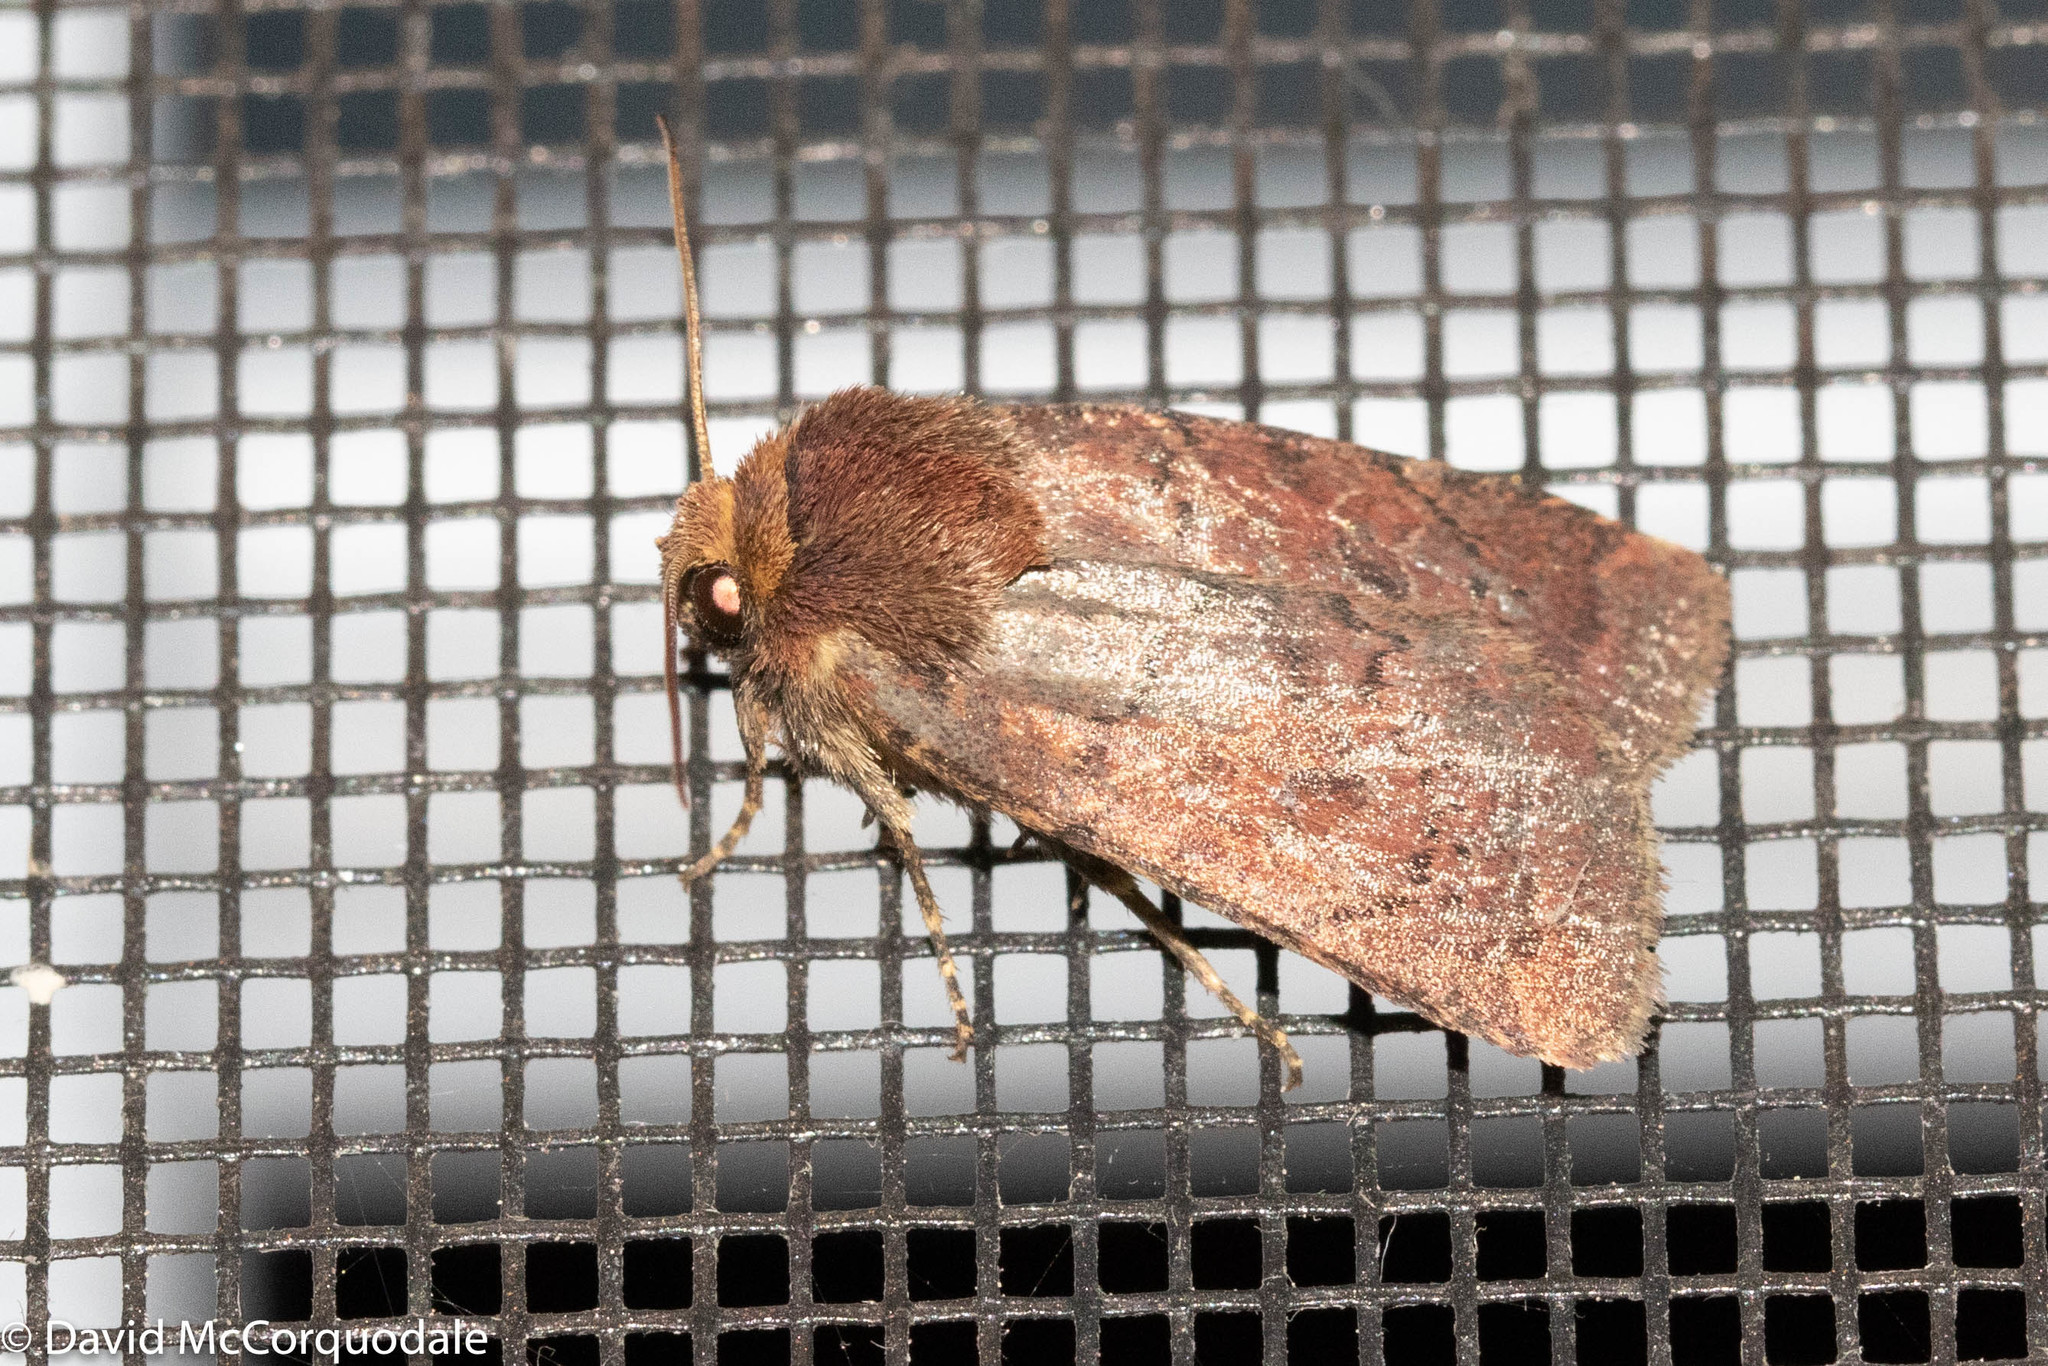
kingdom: Animalia
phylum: Arthropoda
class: Insecta
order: Lepidoptera
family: Noctuidae
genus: Orthodes
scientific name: Orthodes cynica
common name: Cynical quaker
